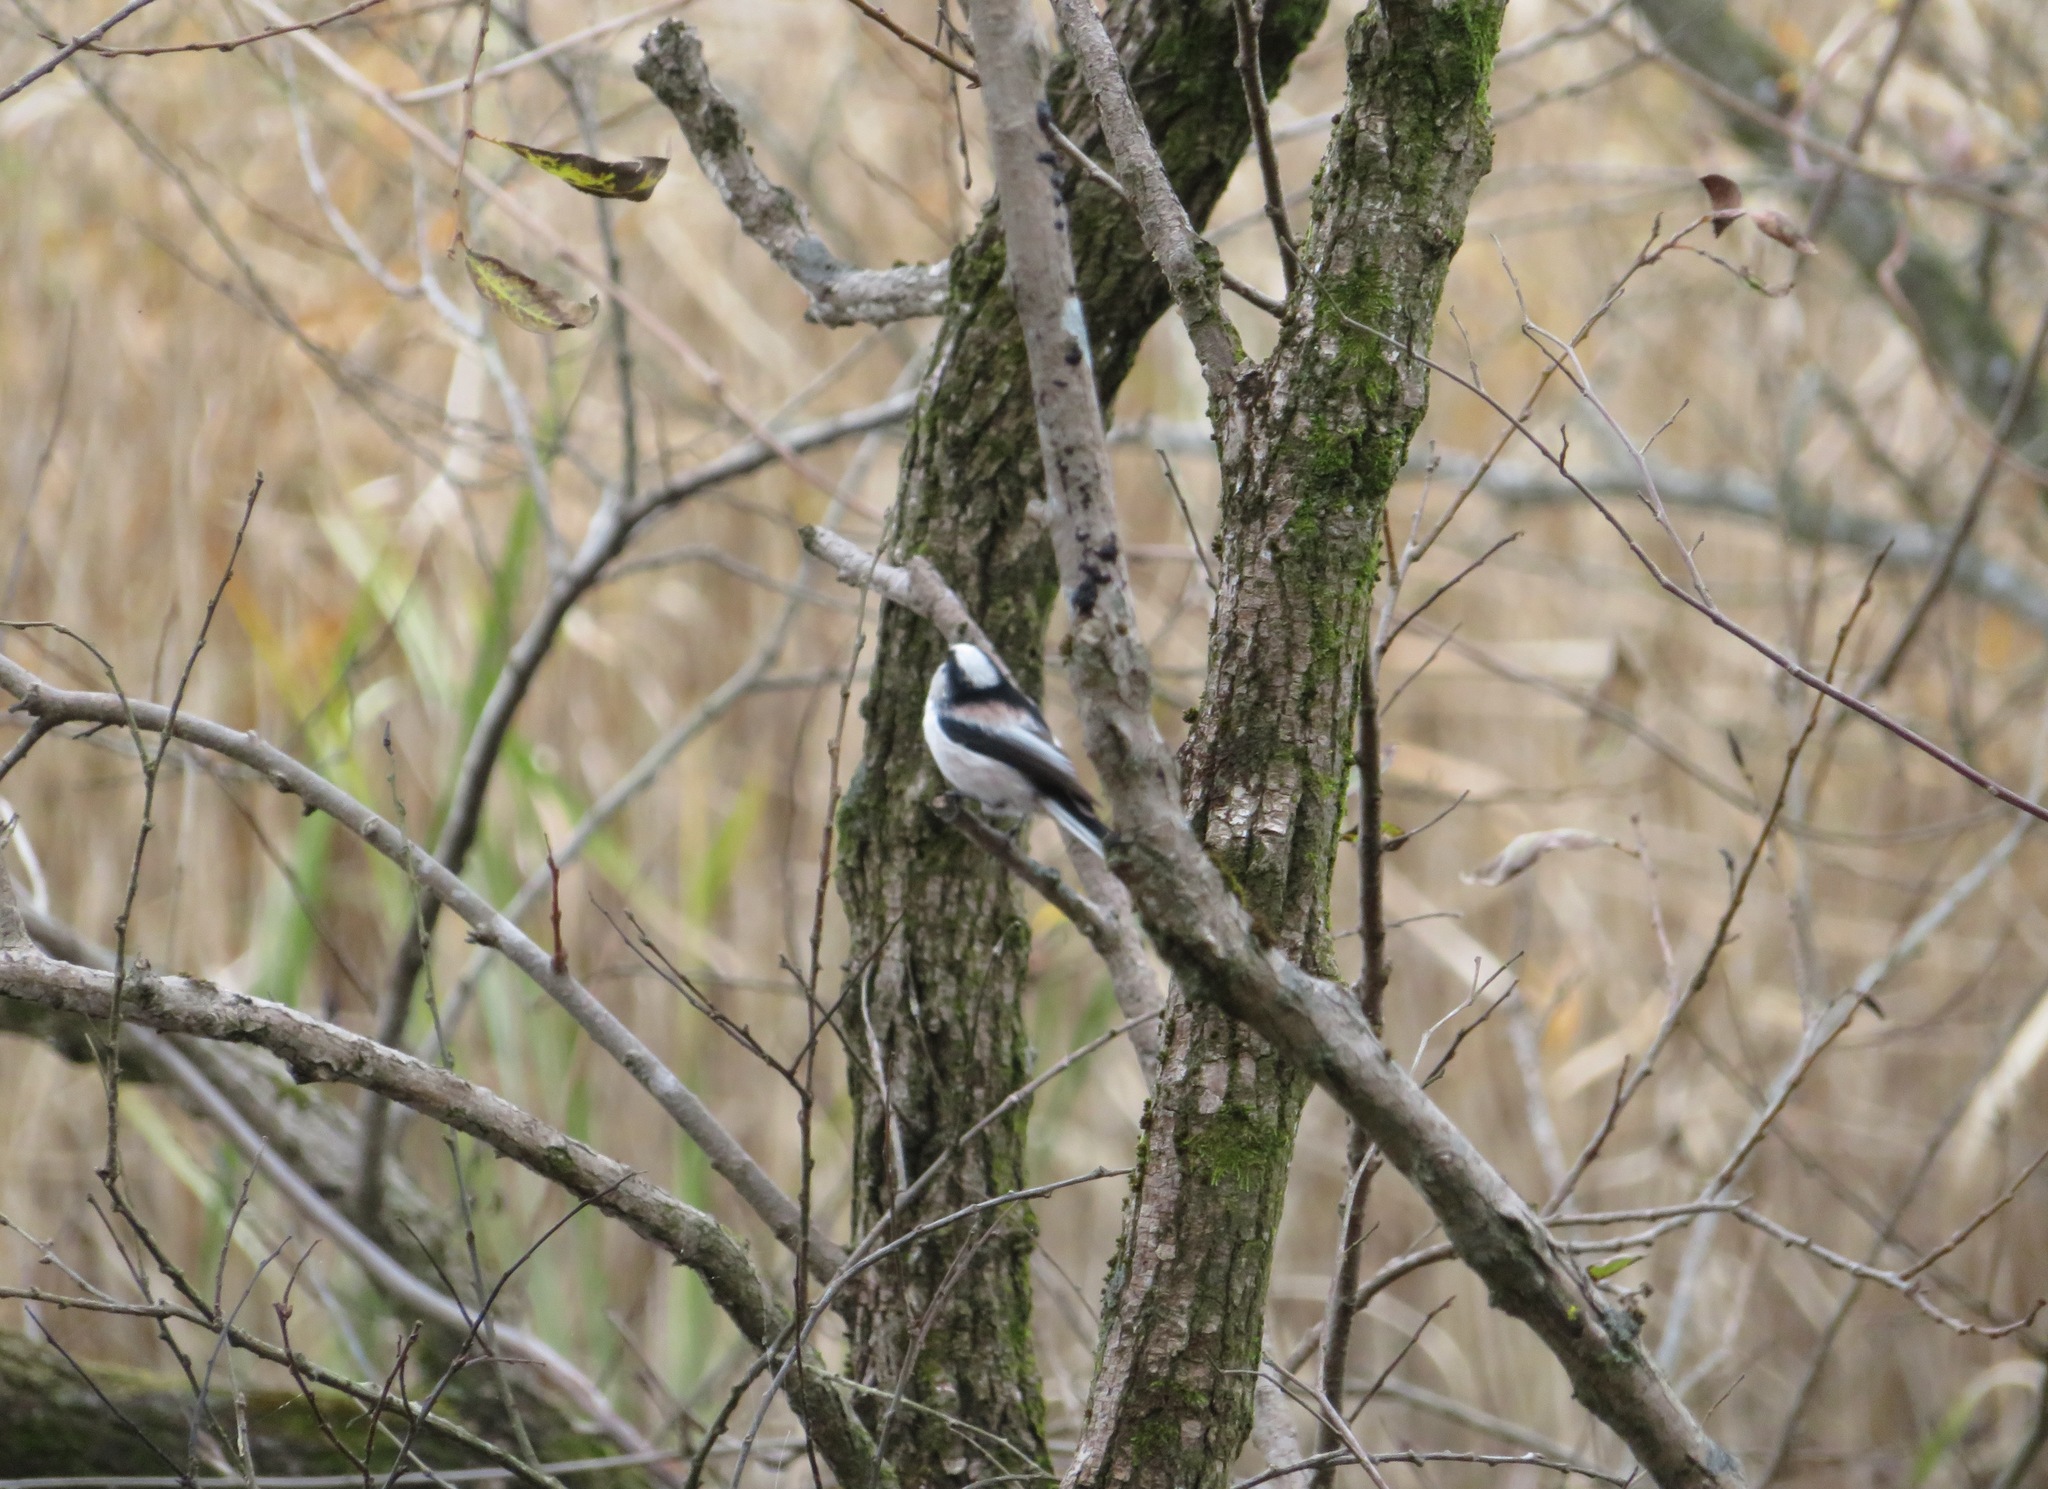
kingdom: Animalia
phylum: Chordata
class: Aves
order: Passeriformes
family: Aegithalidae
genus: Aegithalos
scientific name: Aegithalos caudatus
